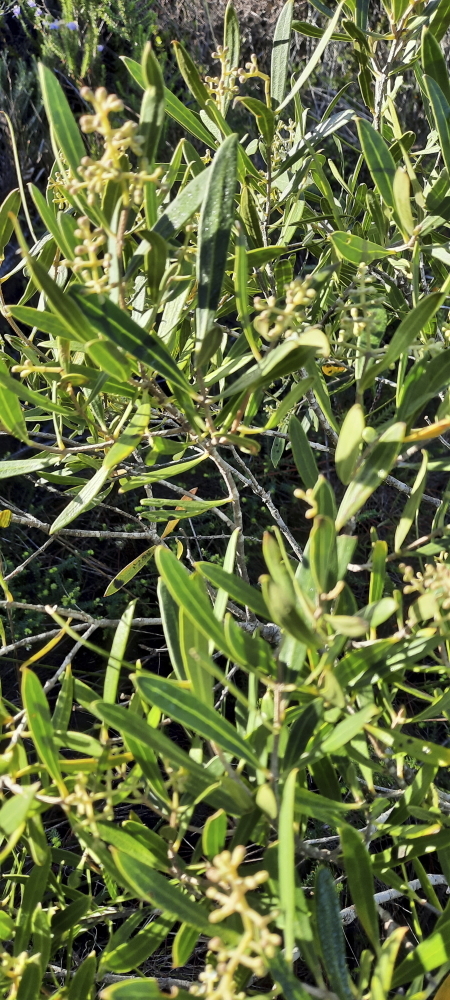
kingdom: Plantae
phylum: Tracheophyta
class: Magnoliopsida
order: Lamiales
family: Oleaceae
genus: Olea
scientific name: Olea exasperata
